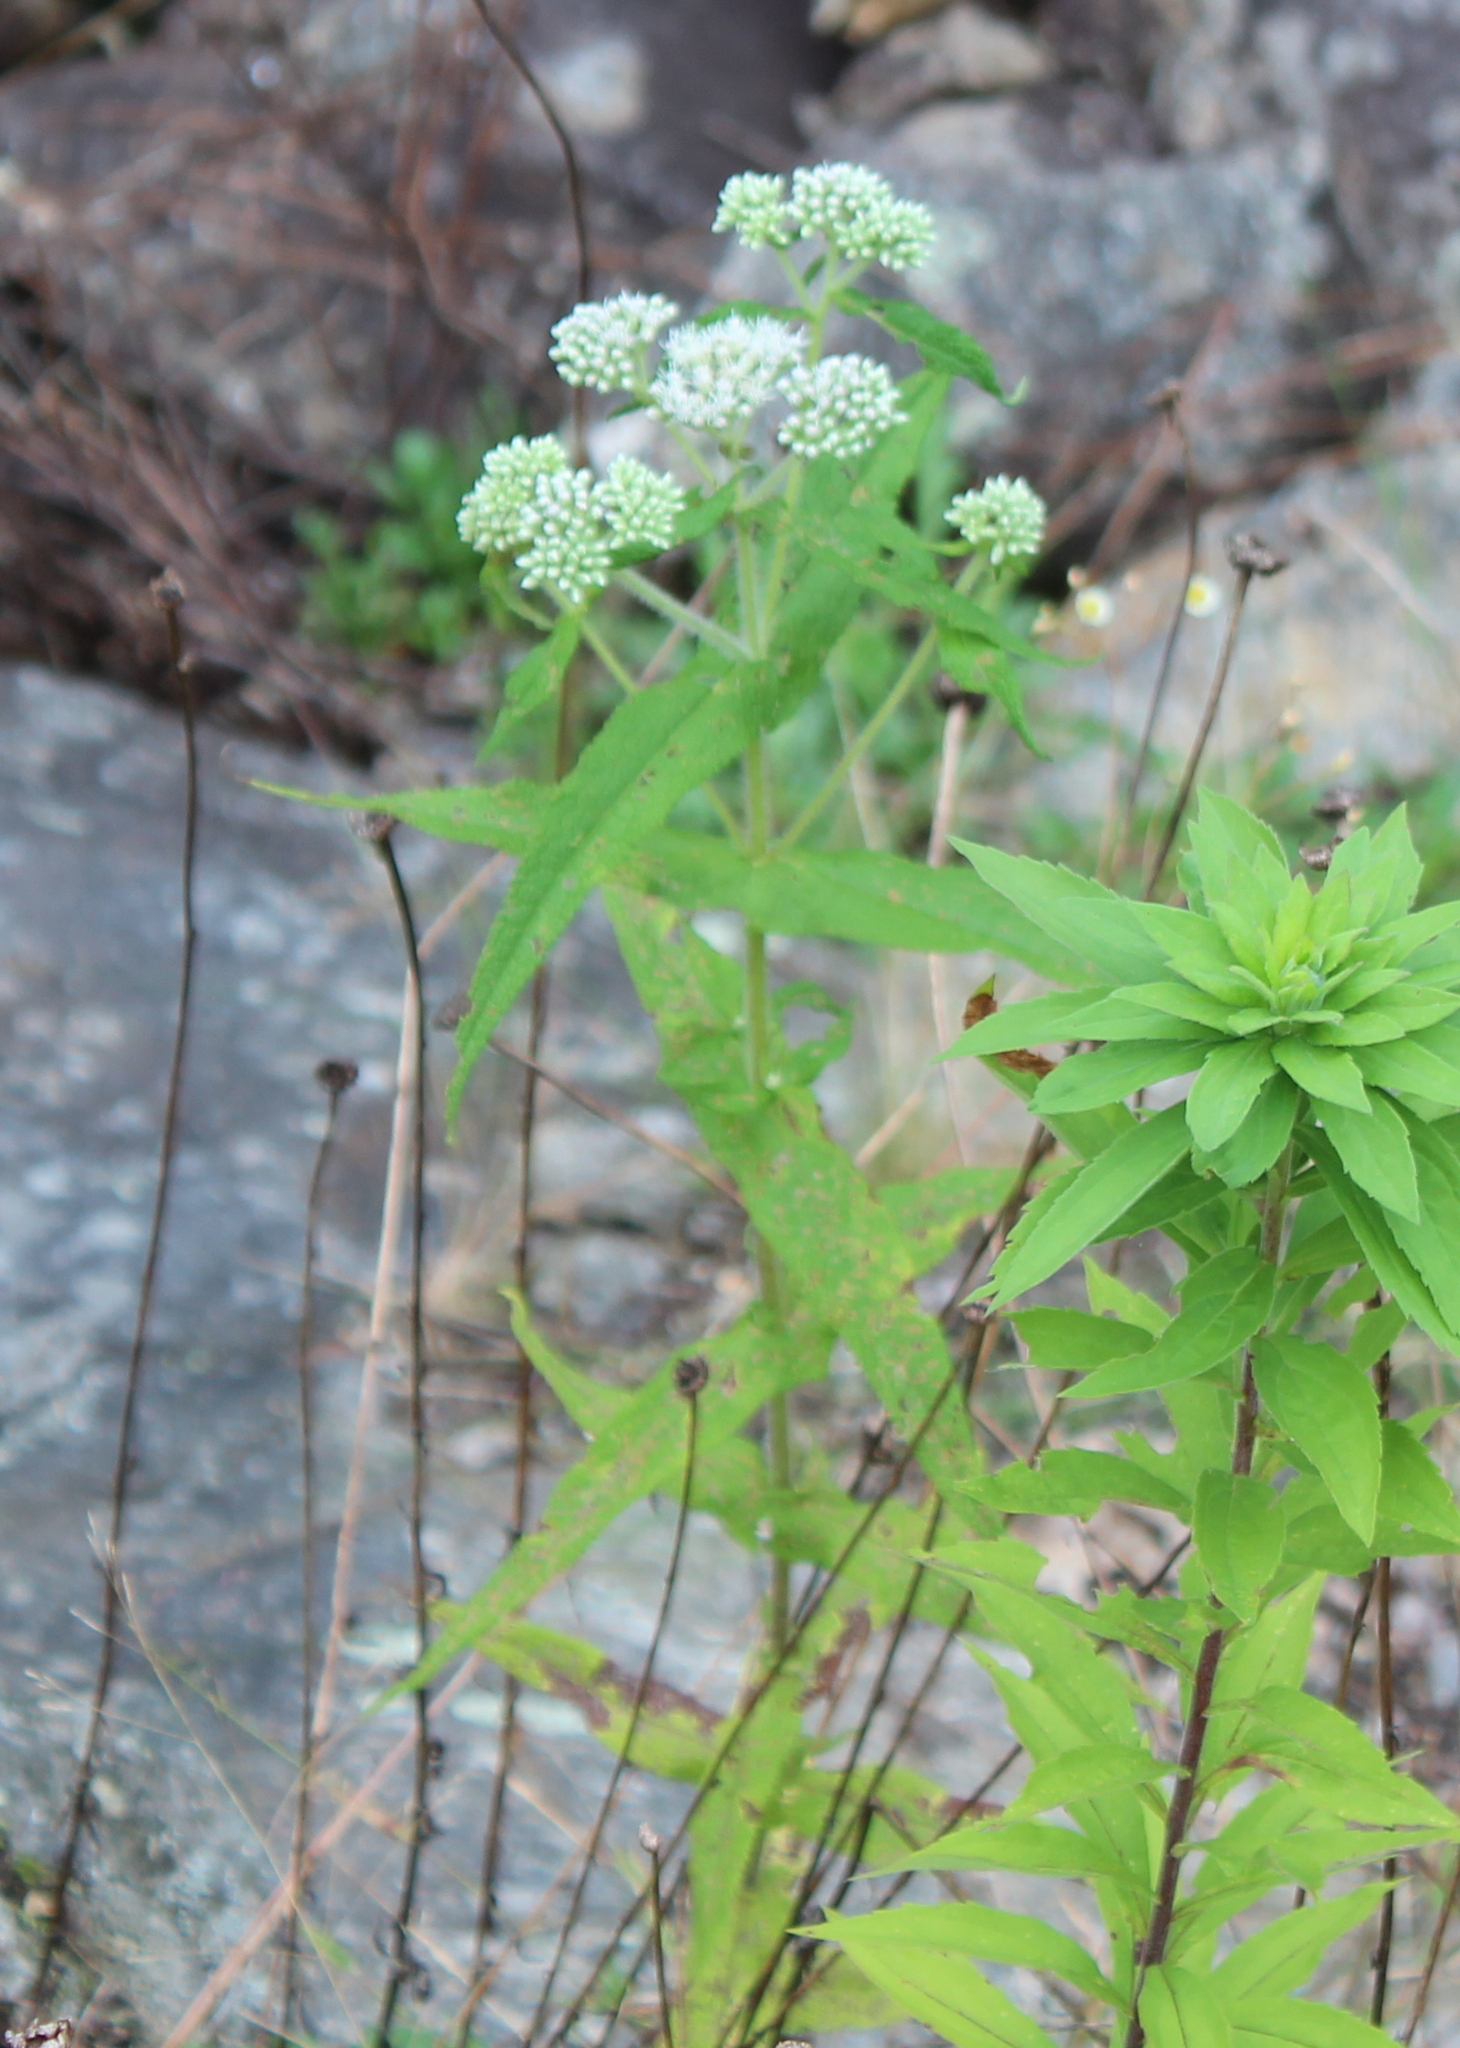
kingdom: Plantae
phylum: Tracheophyta
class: Magnoliopsida
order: Asterales
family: Asteraceae
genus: Eupatorium
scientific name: Eupatorium perfoliatum
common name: Boneset
